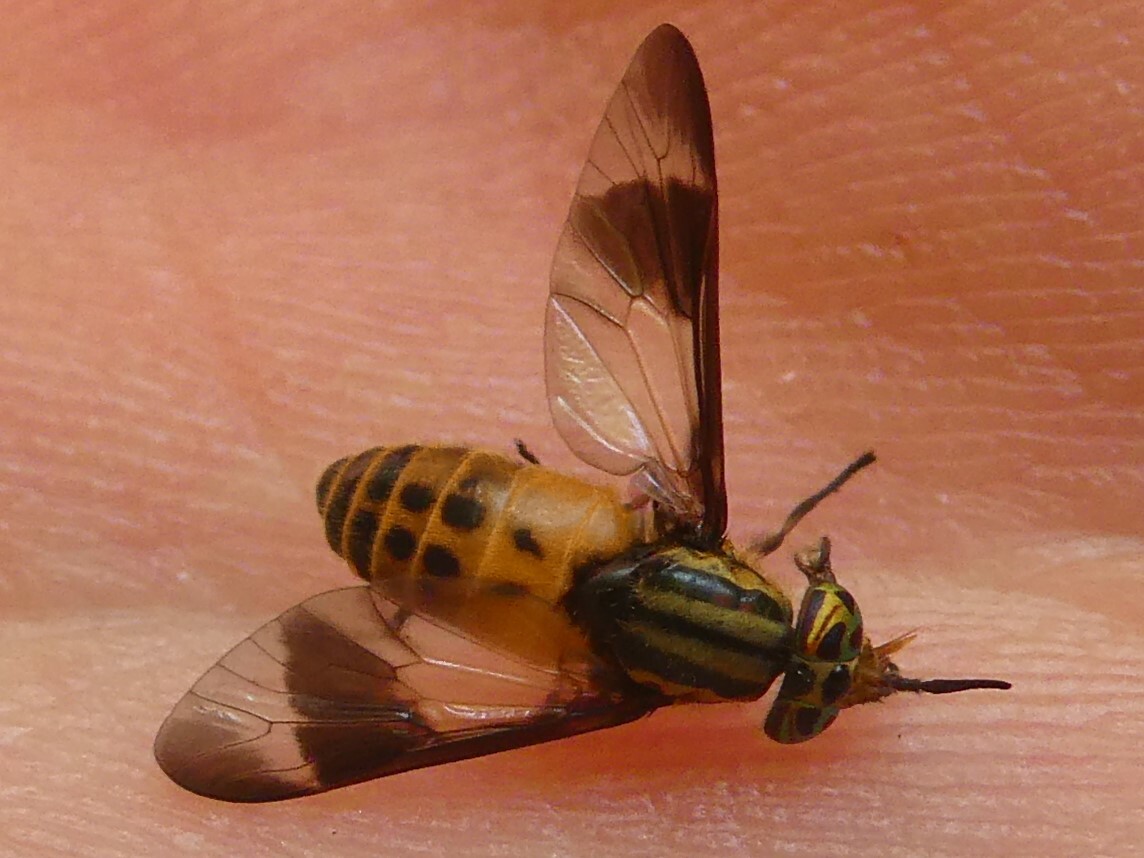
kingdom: Animalia
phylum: Arthropoda
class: Insecta
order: Diptera
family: Tabanidae
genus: Chrysops
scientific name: Chrysops geminatus
